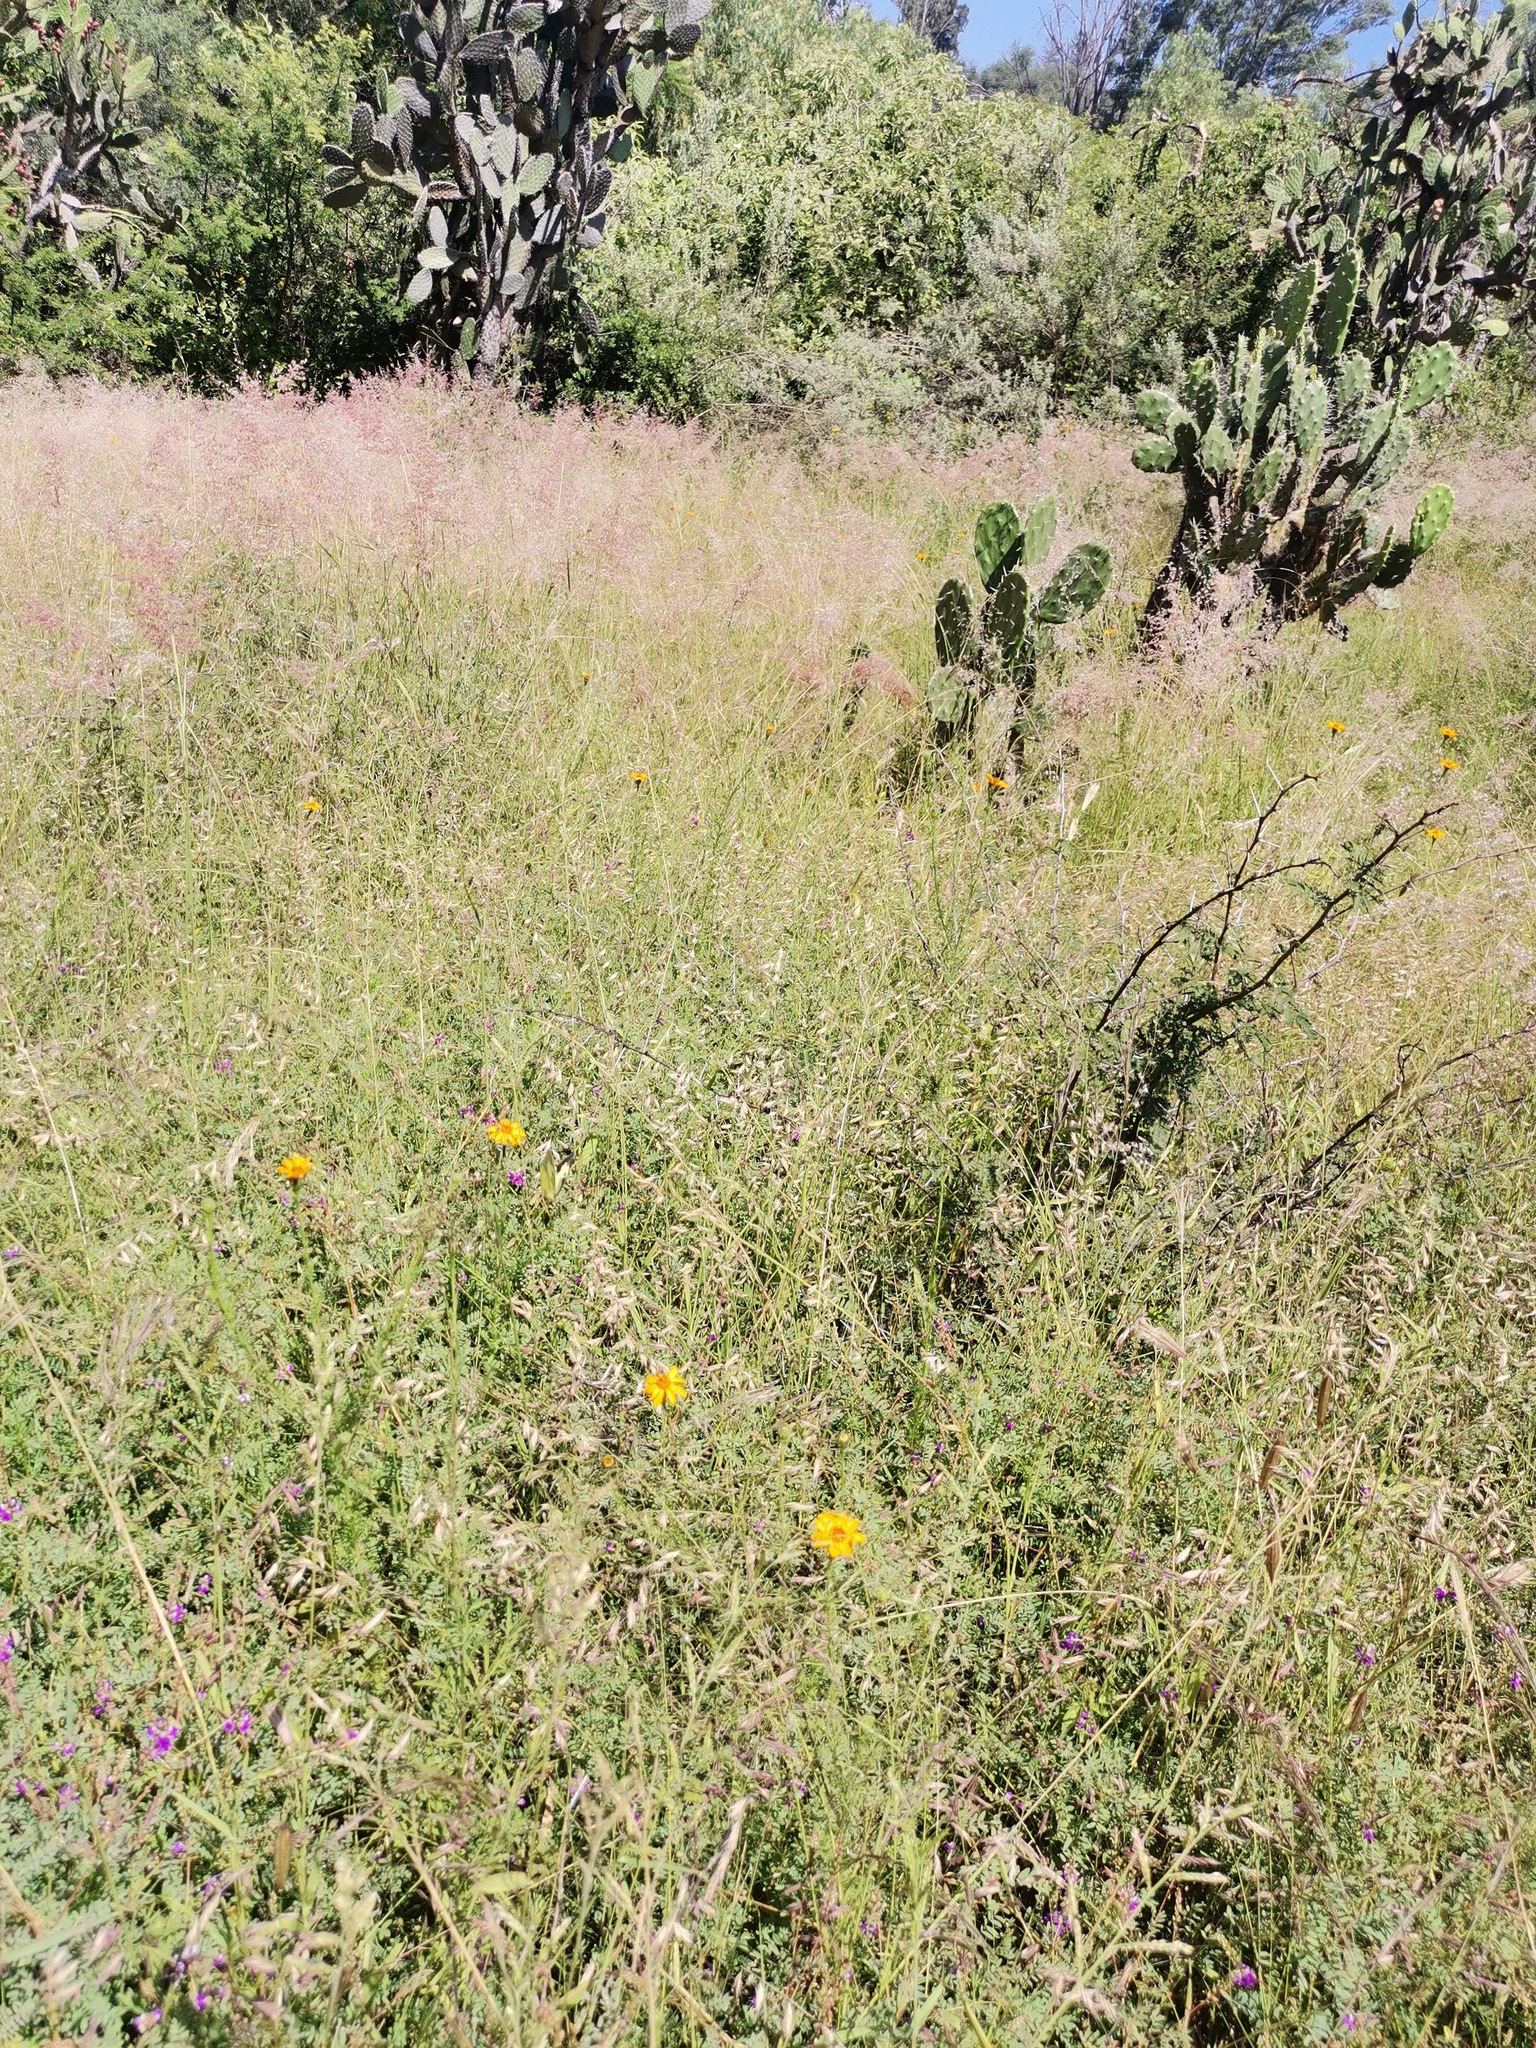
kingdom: Plantae
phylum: Tracheophyta
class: Liliopsida
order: Poales
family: Poaceae
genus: Melinis
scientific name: Melinis repens
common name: Rose natal grass
